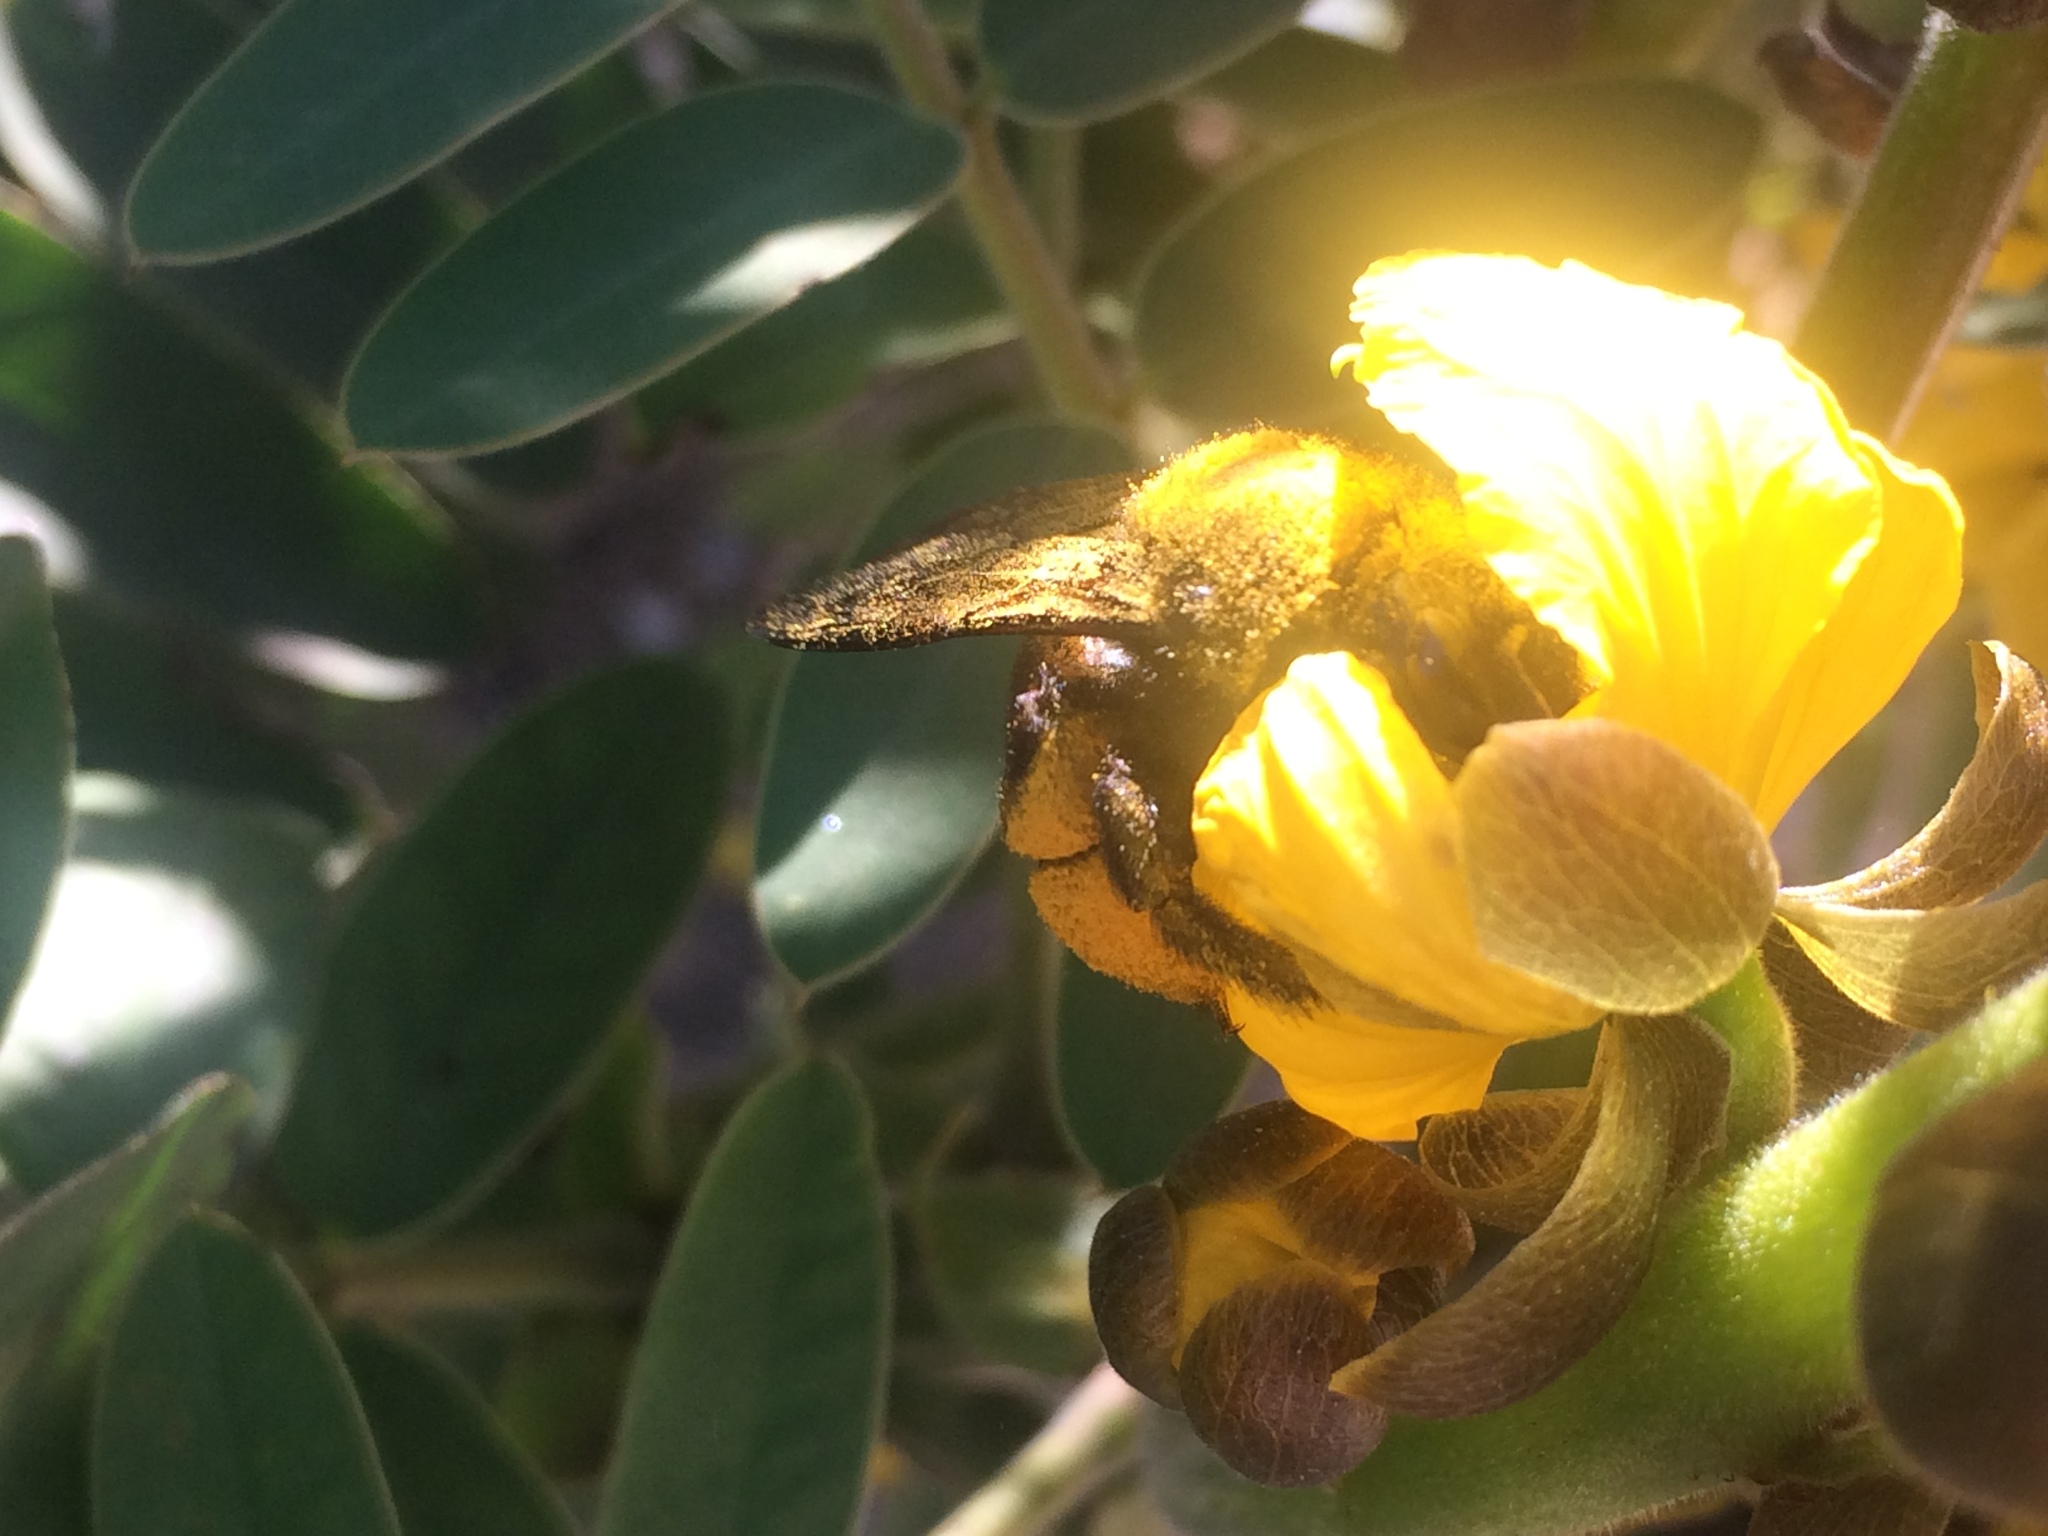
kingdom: Animalia
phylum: Arthropoda
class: Insecta
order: Hymenoptera
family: Apidae
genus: Xylocopa
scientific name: Xylocopa sonorina
